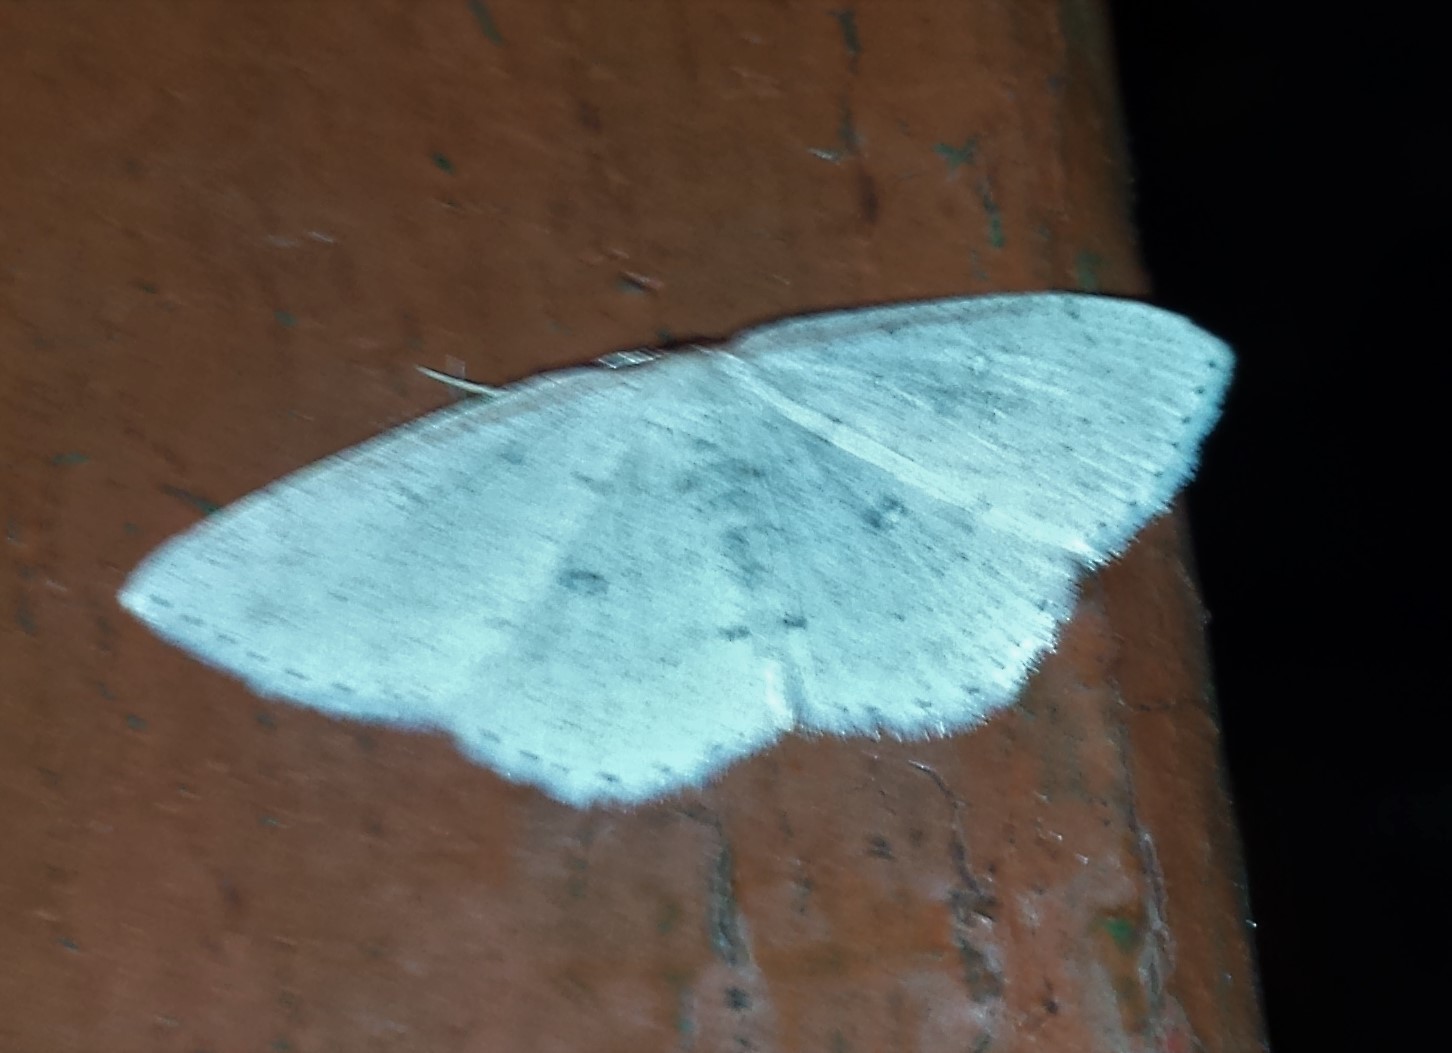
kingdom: Animalia
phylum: Arthropoda
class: Insecta
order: Lepidoptera
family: Geometridae
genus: Cyclophora
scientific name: Cyclophora pendulinaria
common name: Sweet fern geometer
